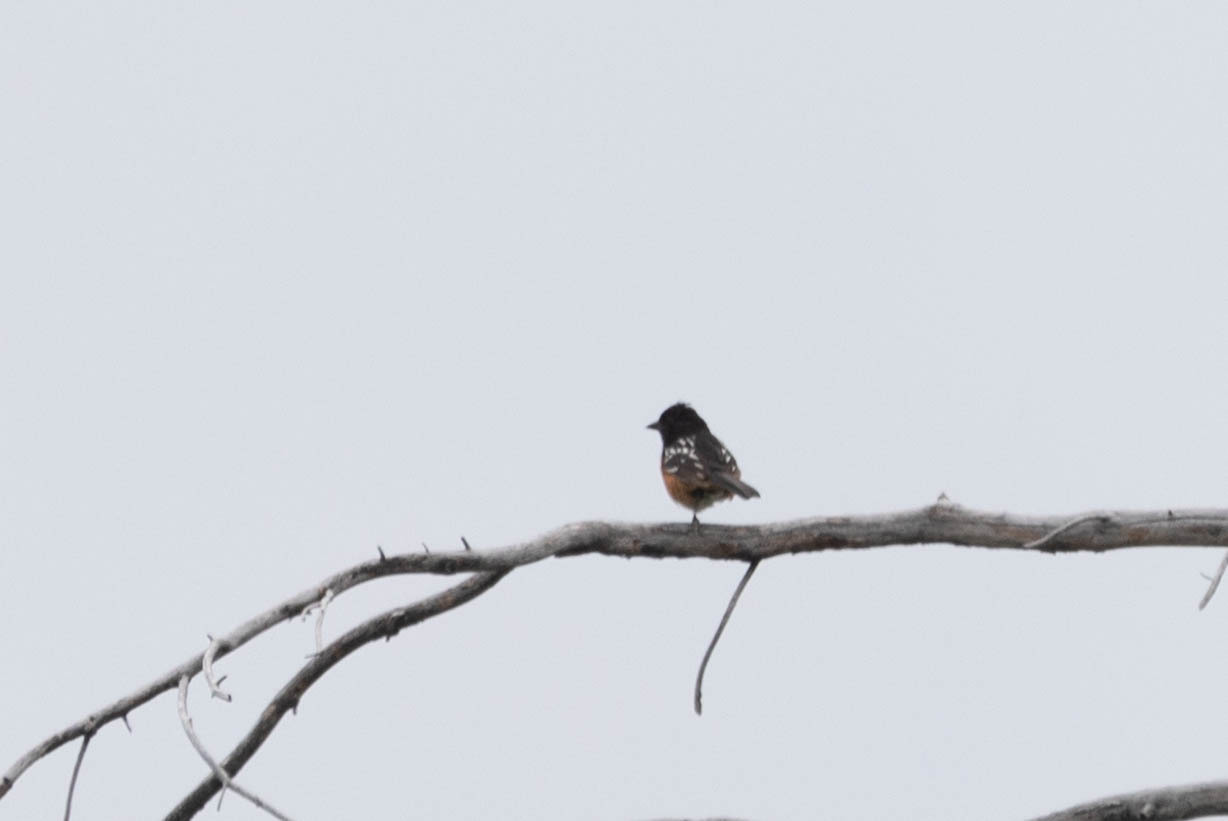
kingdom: Animalia
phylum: Chordata
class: Aves
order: Passeriformes
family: Passerellidae
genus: Pipilo
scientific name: Pipilo maculatus
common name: Spotted towhee
